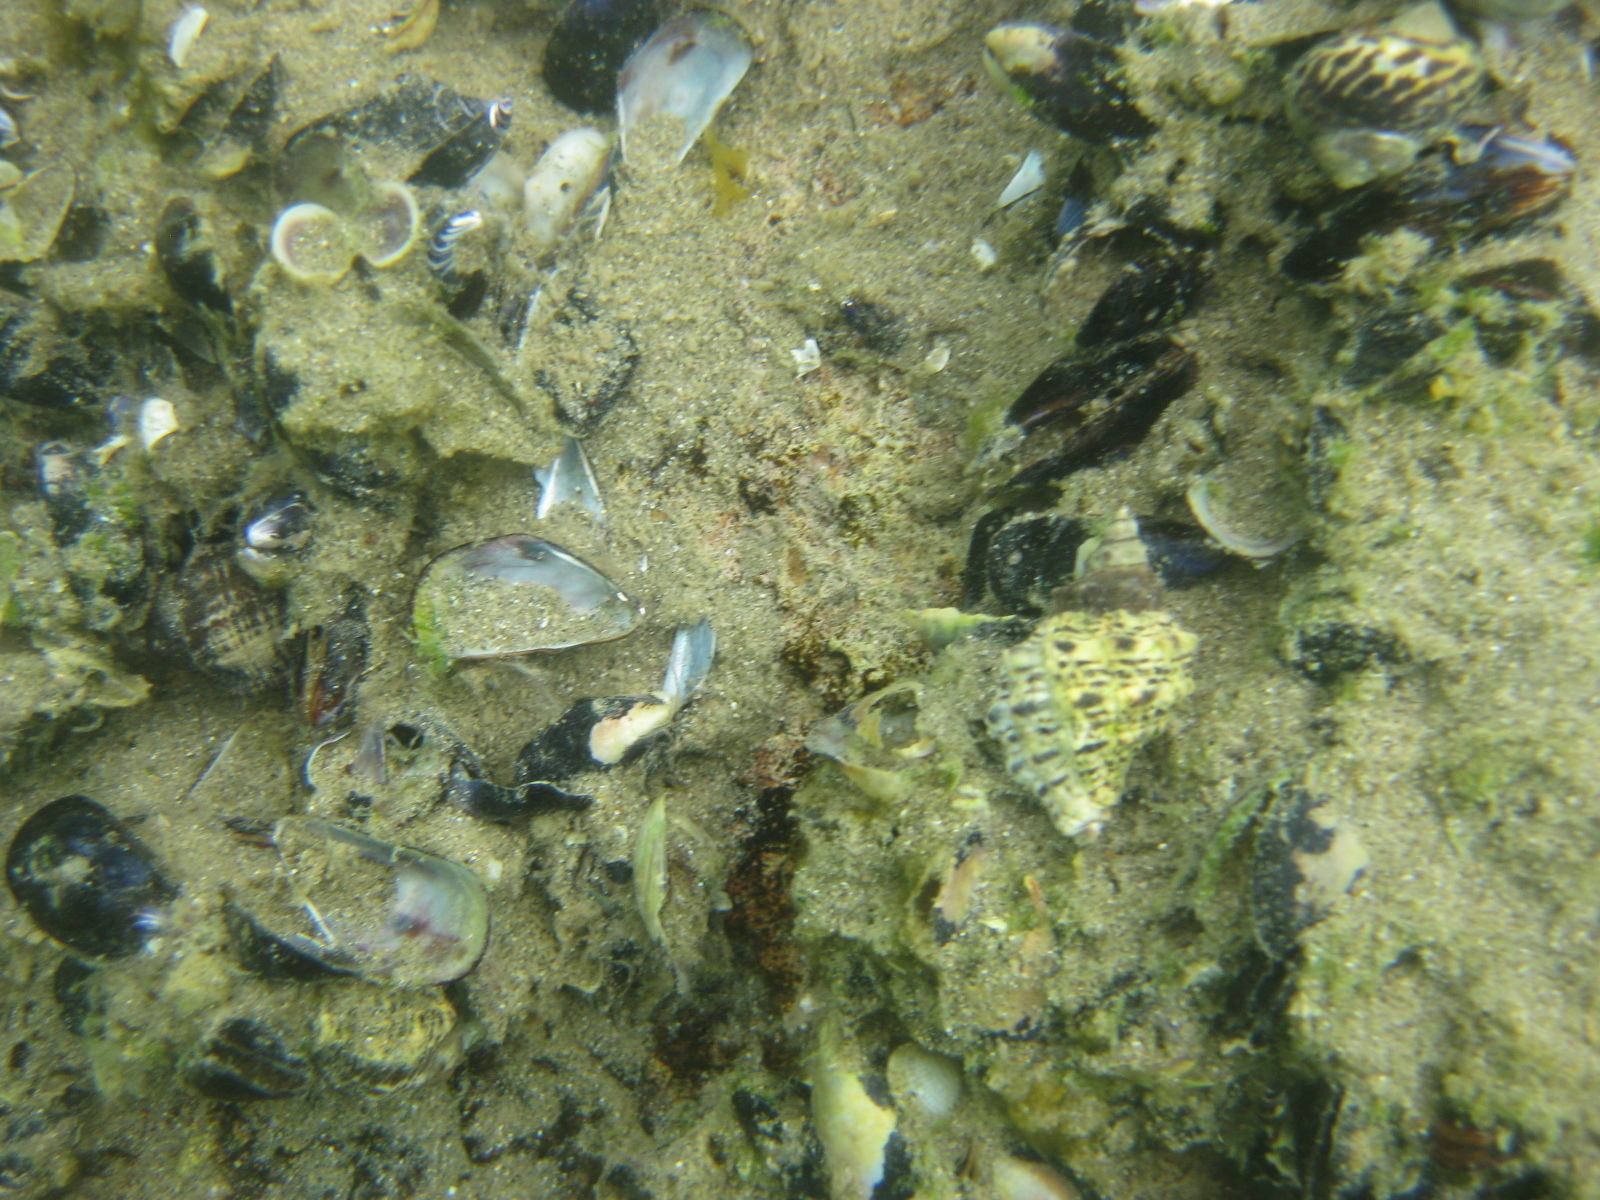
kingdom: Animalia
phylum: Mollusca
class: Gastropoda
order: Neogastropoda
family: Muricidae
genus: Haustrum
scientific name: Haustrum scobina
